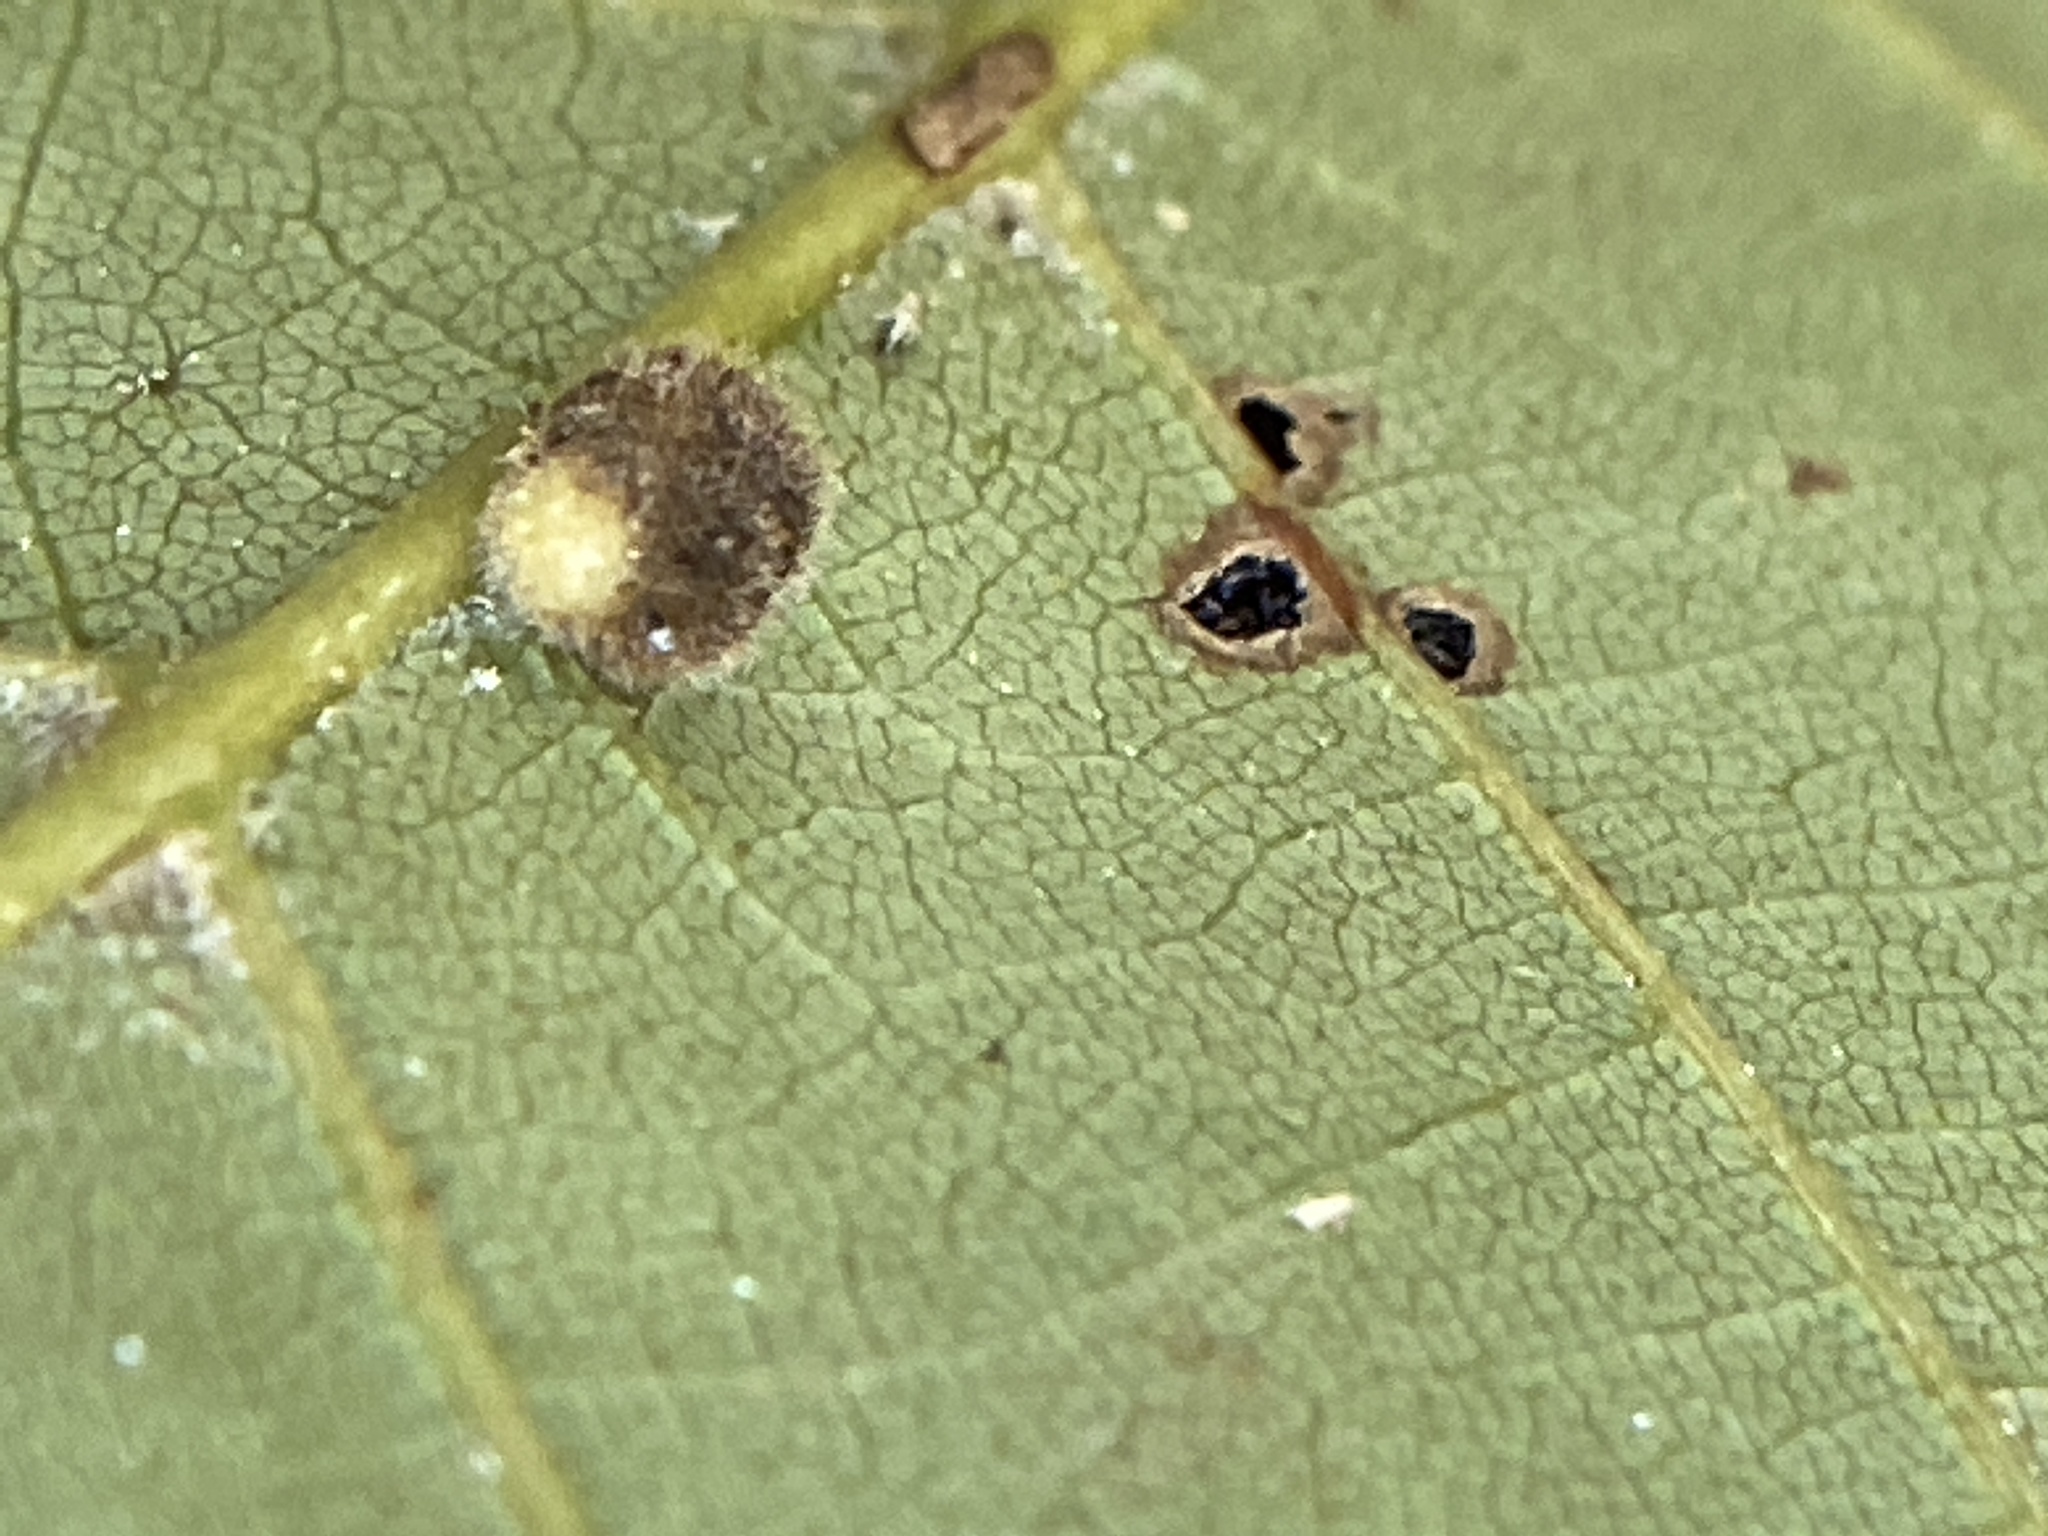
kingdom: Animalia
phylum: Arthropoda
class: Insecta
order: Diptera
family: Cecidomyiidae
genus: Caryomyia
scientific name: Caryomyia thompsoni
